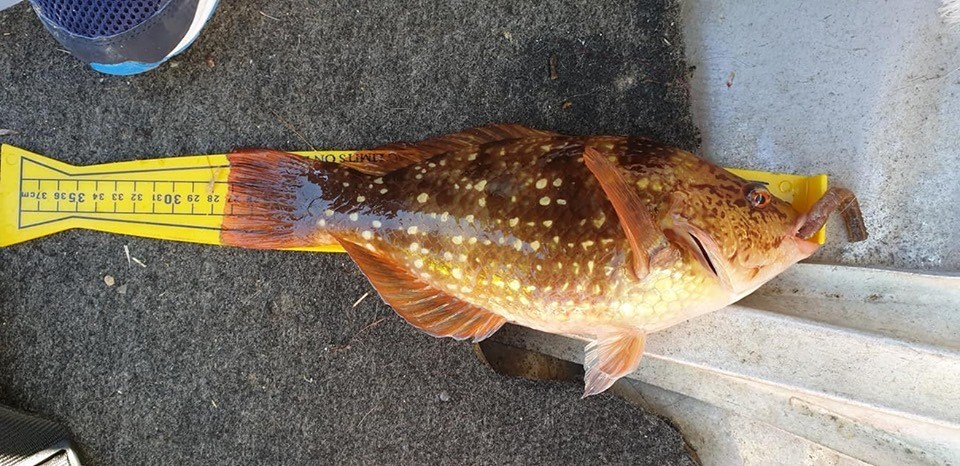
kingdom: Animalia
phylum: Chordata
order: Perciformes
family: Labridae
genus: Notolabrus
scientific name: Notolabrus gymnogenis
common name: Crimson banded wrasse
